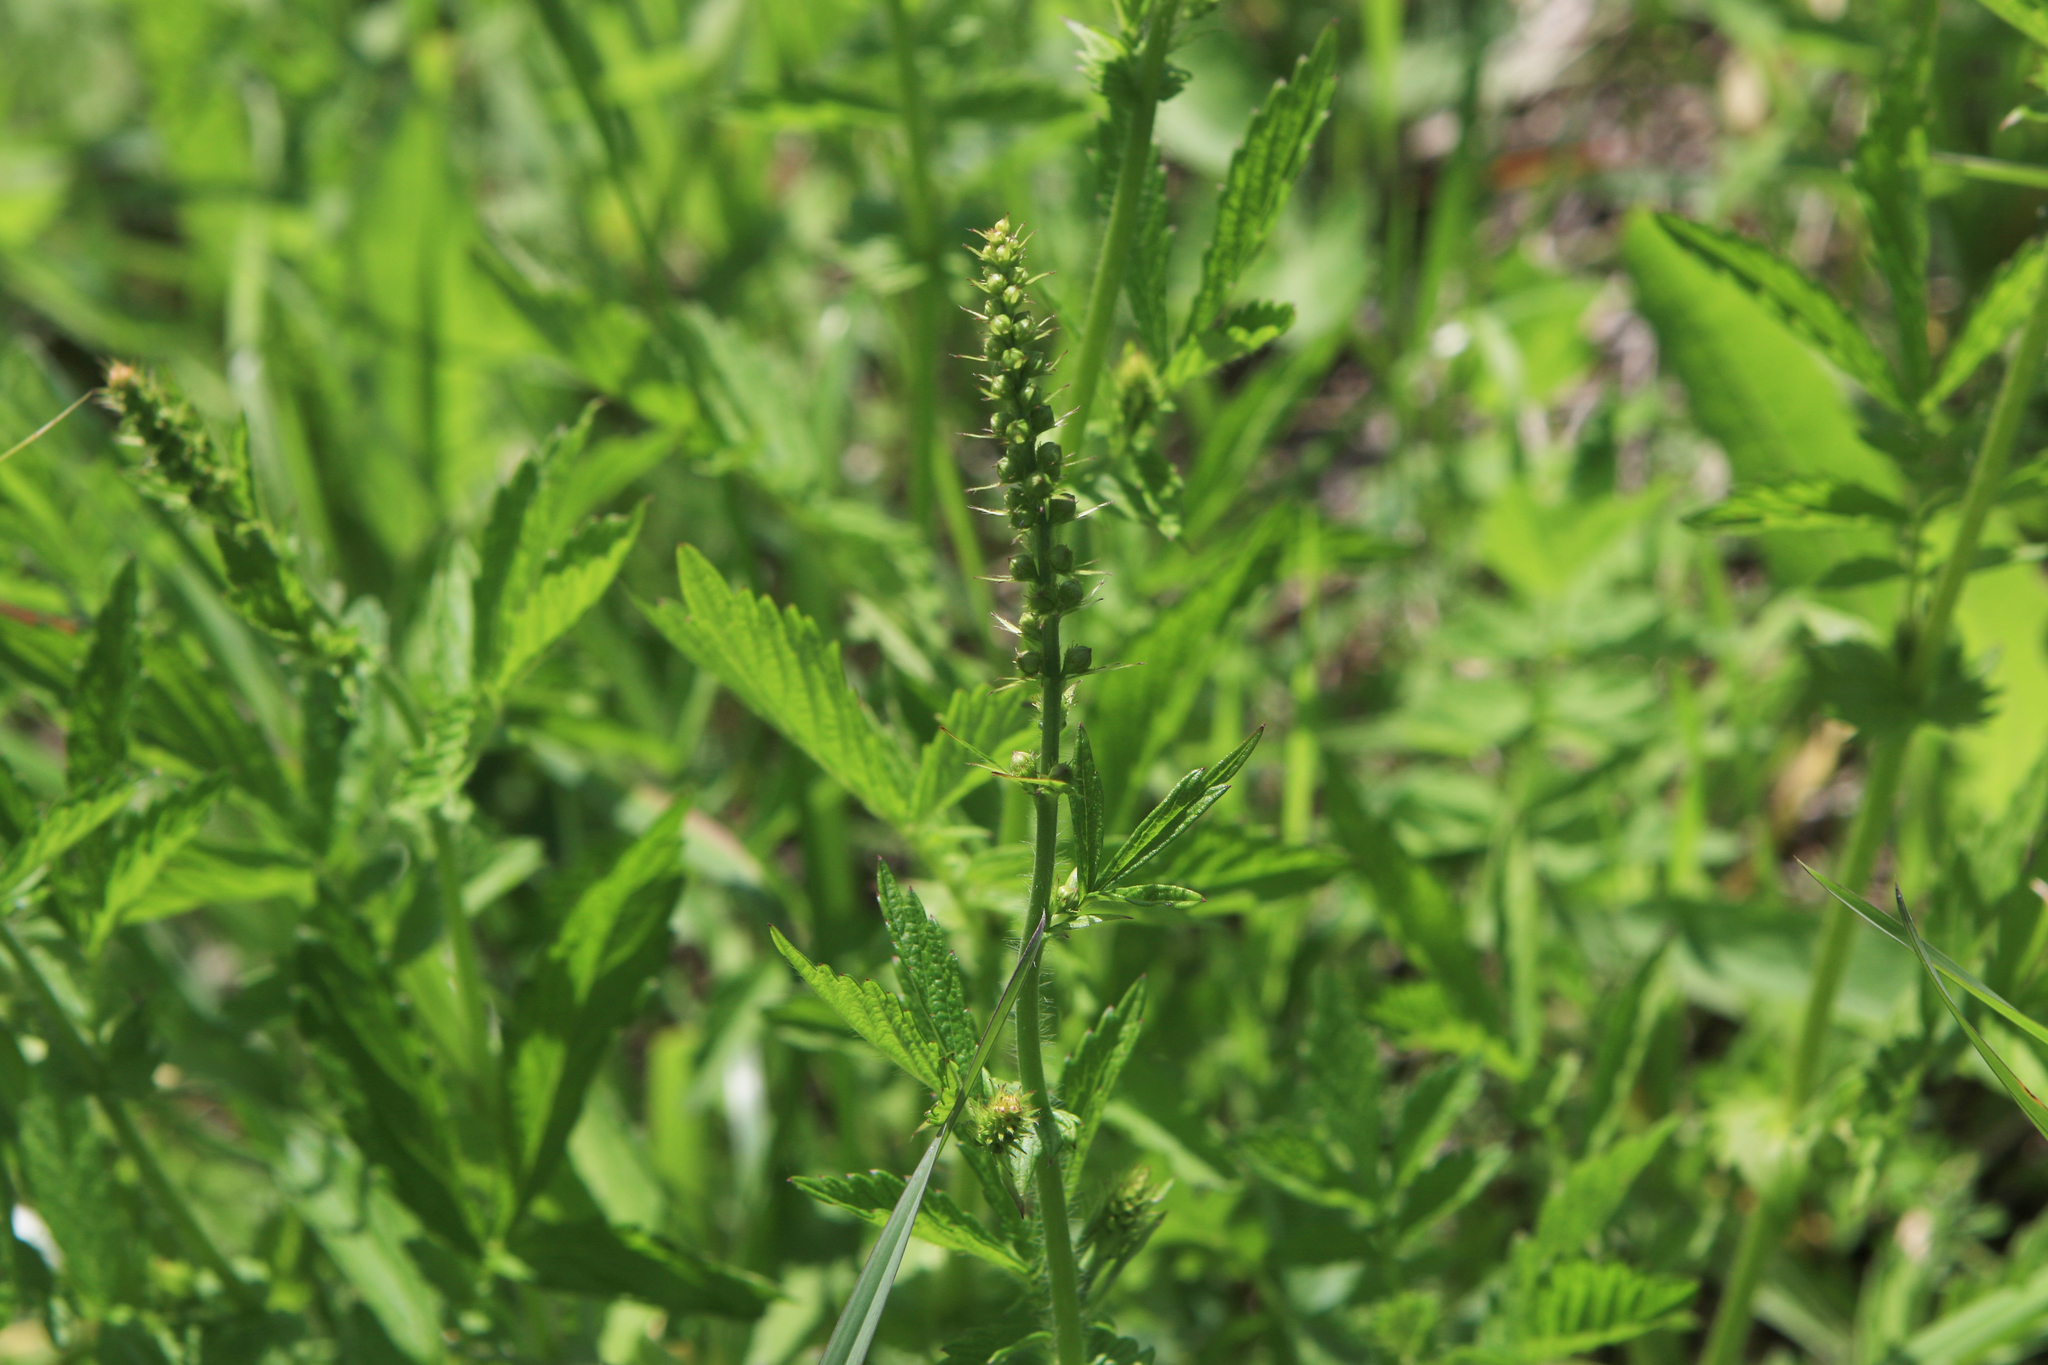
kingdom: Plantae
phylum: Tracheophyta
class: Magnoliopsida
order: Rosales
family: Rosaceae
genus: Agrimonia
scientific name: Agrimonia pilosa
